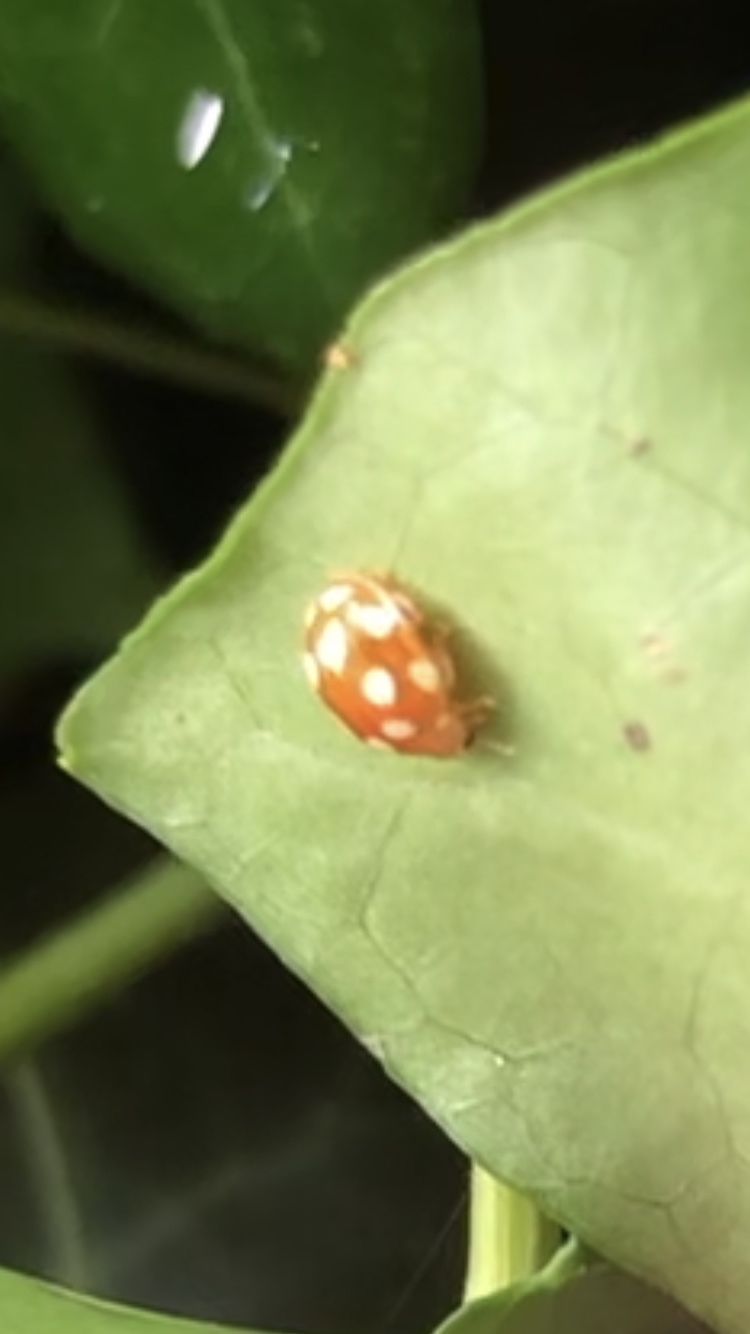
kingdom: Animalia
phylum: Arthropoda
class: Insecta
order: Coleoptera
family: Coccinellidae
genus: Vibidia
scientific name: Vibidia duodecimguttata
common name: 12-spot ladybird
